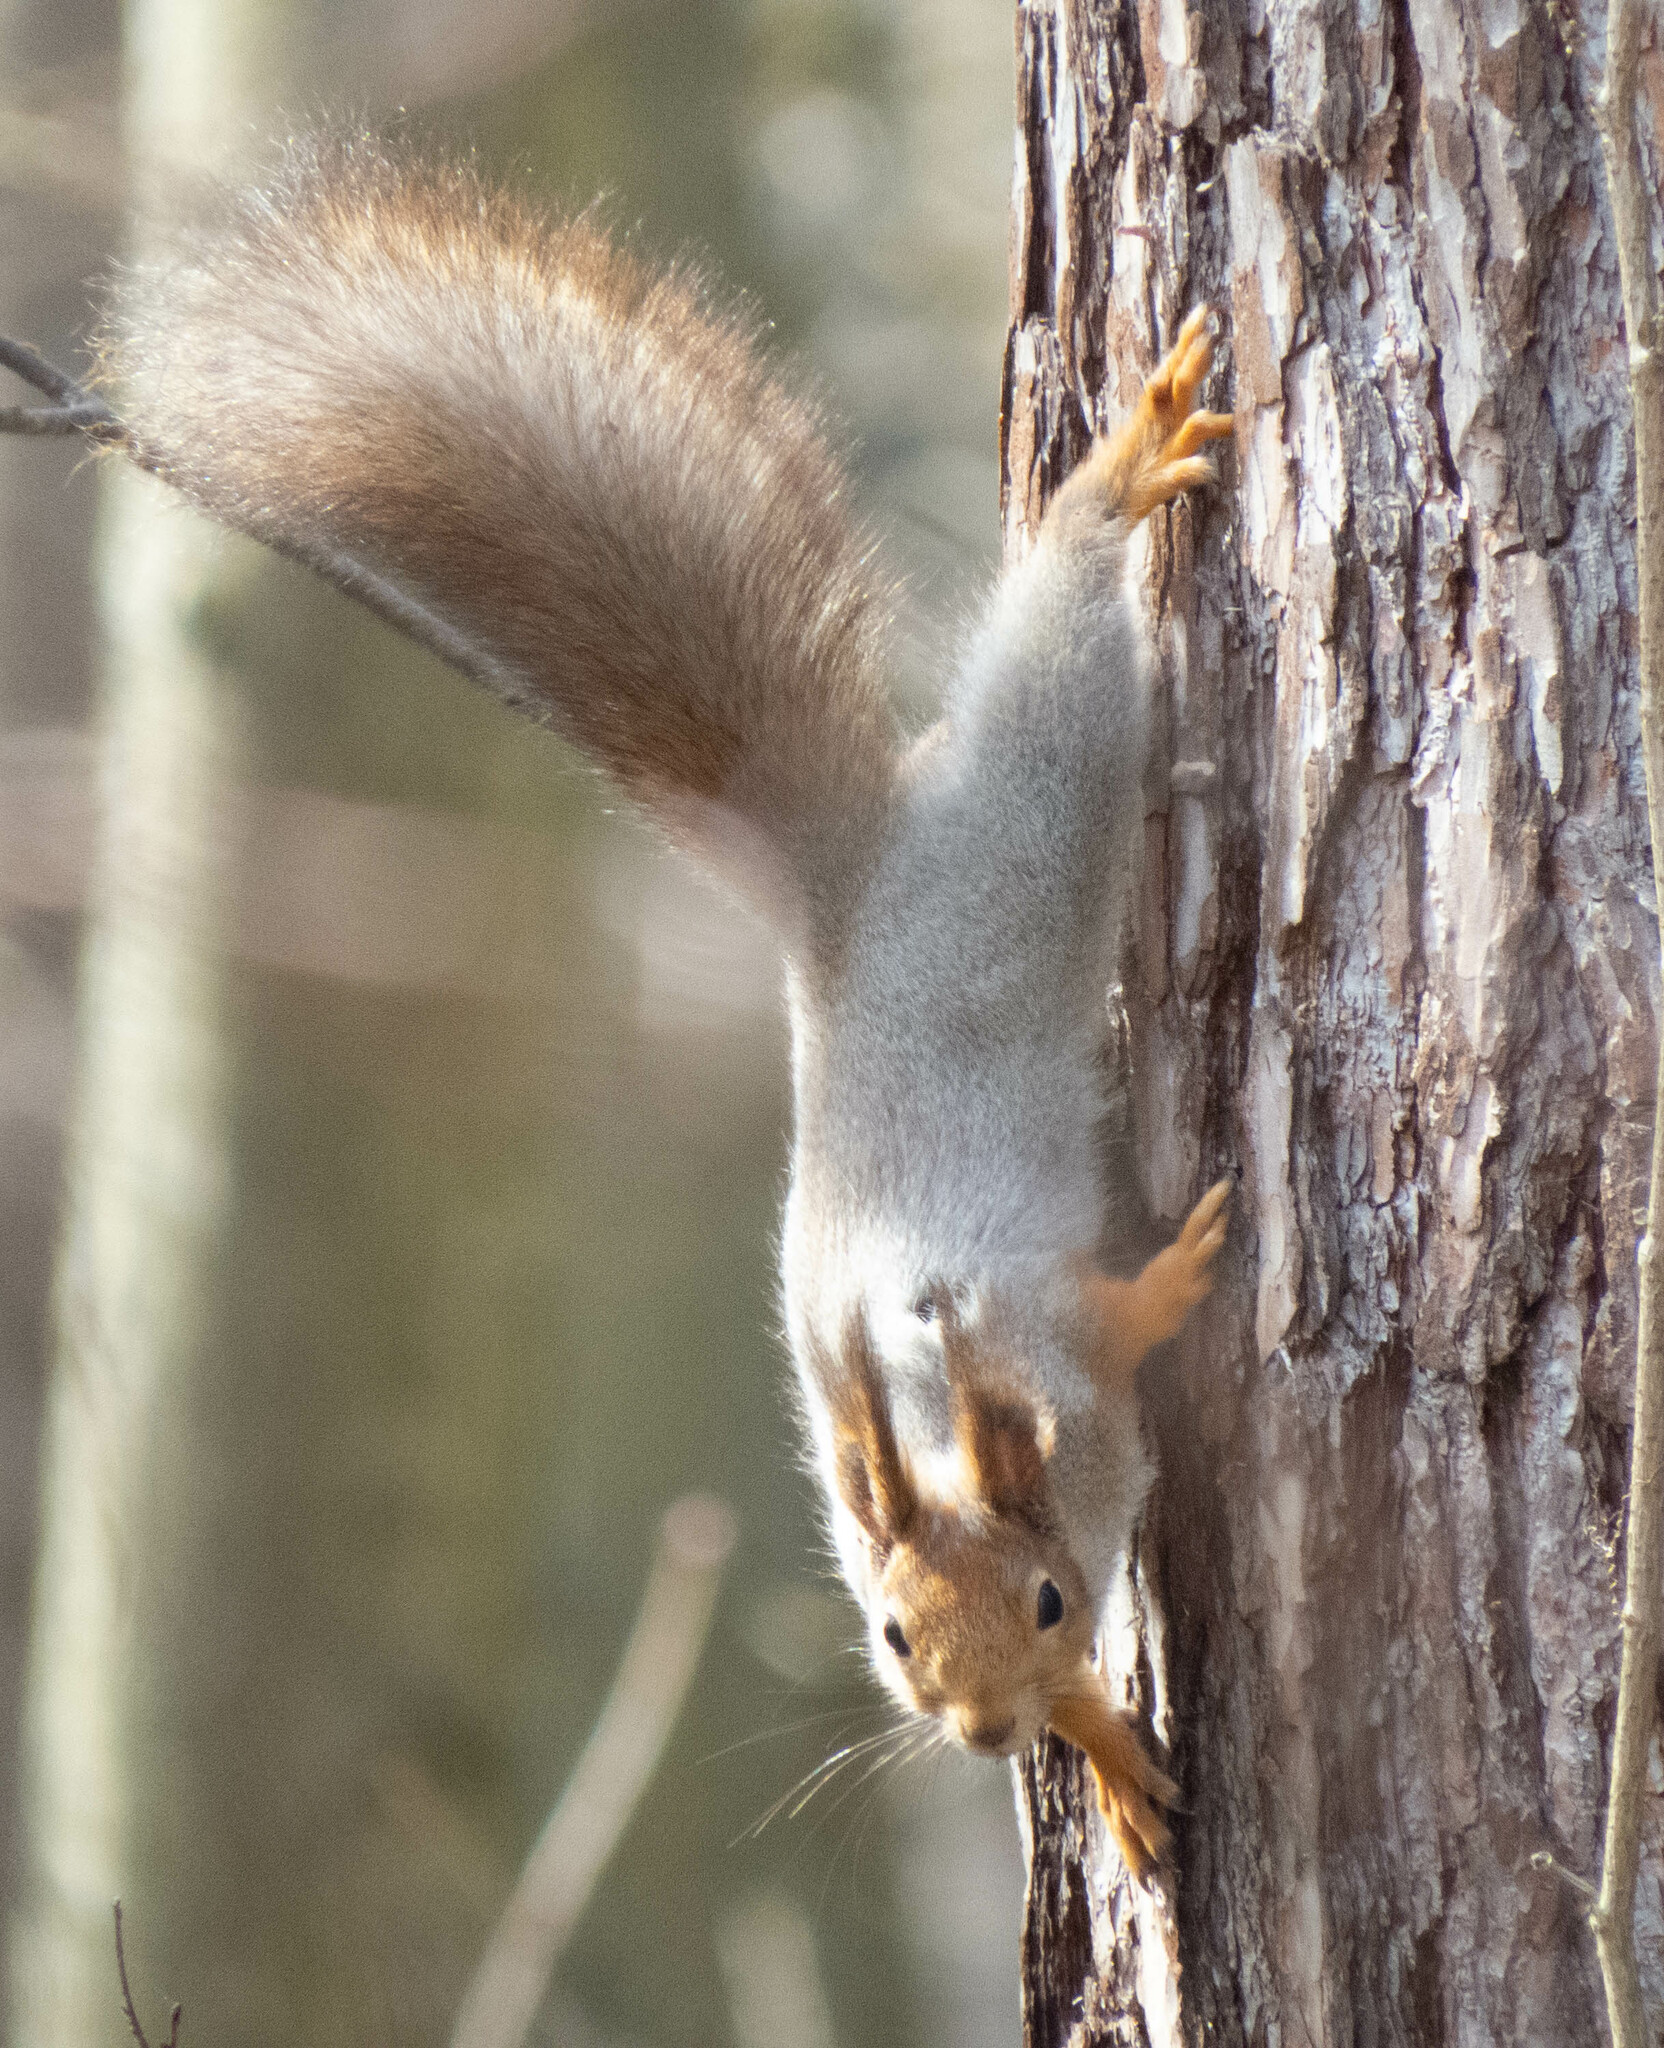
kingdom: Animalia
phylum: Chordata
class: Mammalia
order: Rodentia
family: Sciuridae
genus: Sciurus
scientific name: Sciurus vulgaris
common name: Eurasian red squirrel
